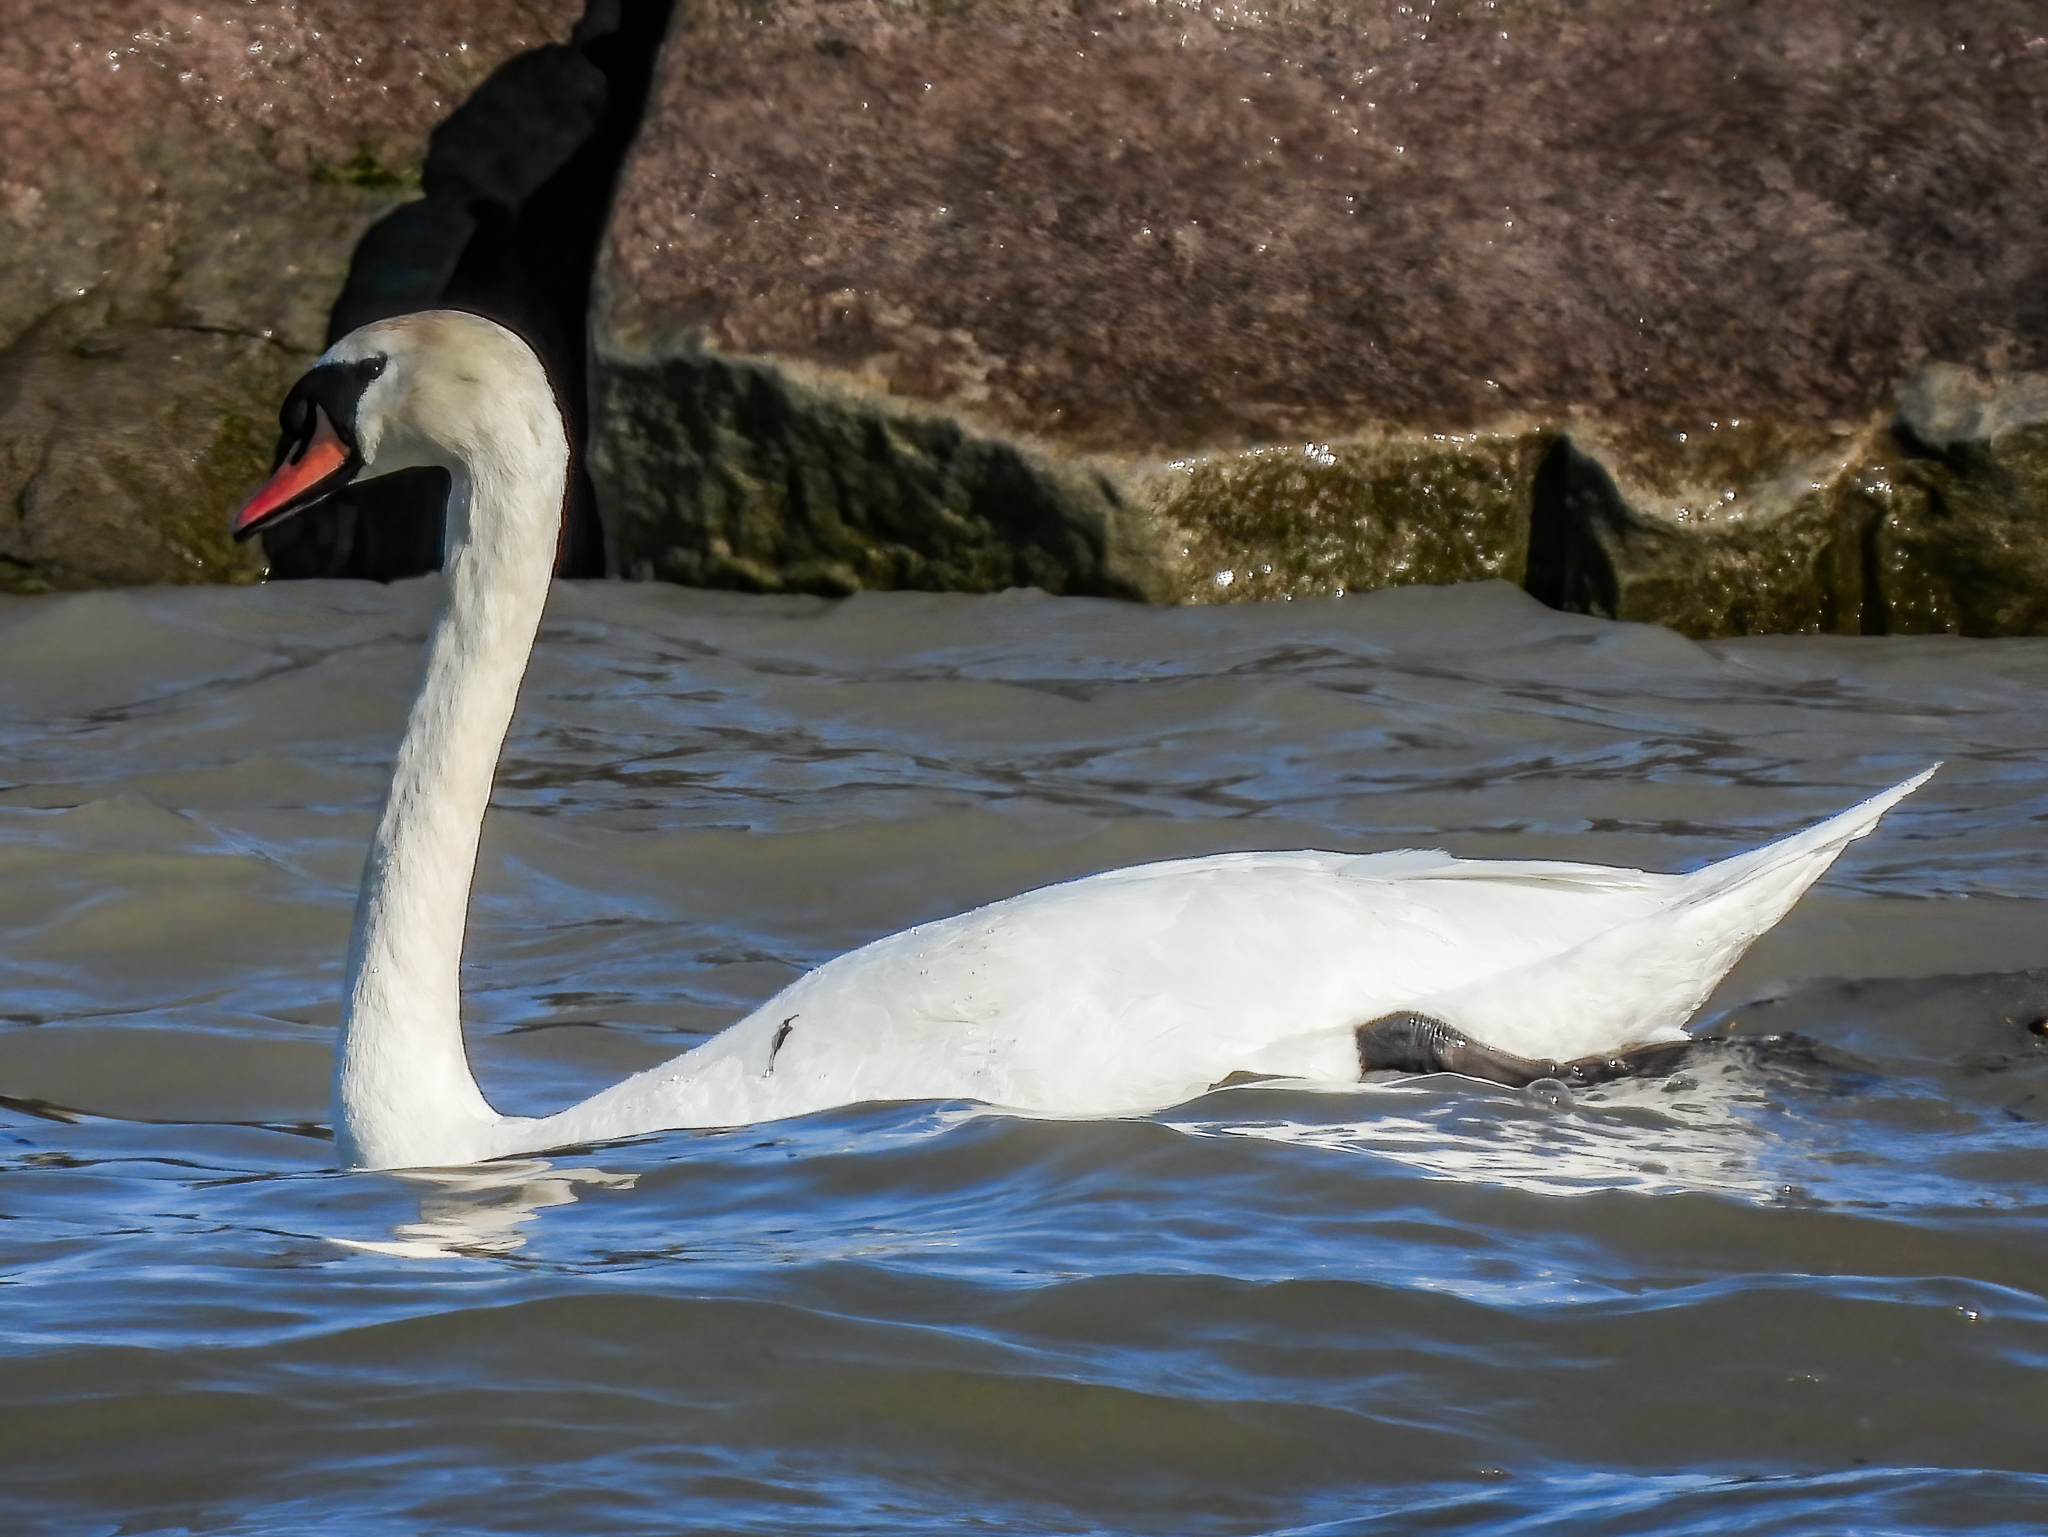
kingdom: Animalia
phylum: Chordata
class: Aves
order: Anseriformes
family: Anatidae
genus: Cygnus
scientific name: Cygnus olor
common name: Mute swan
